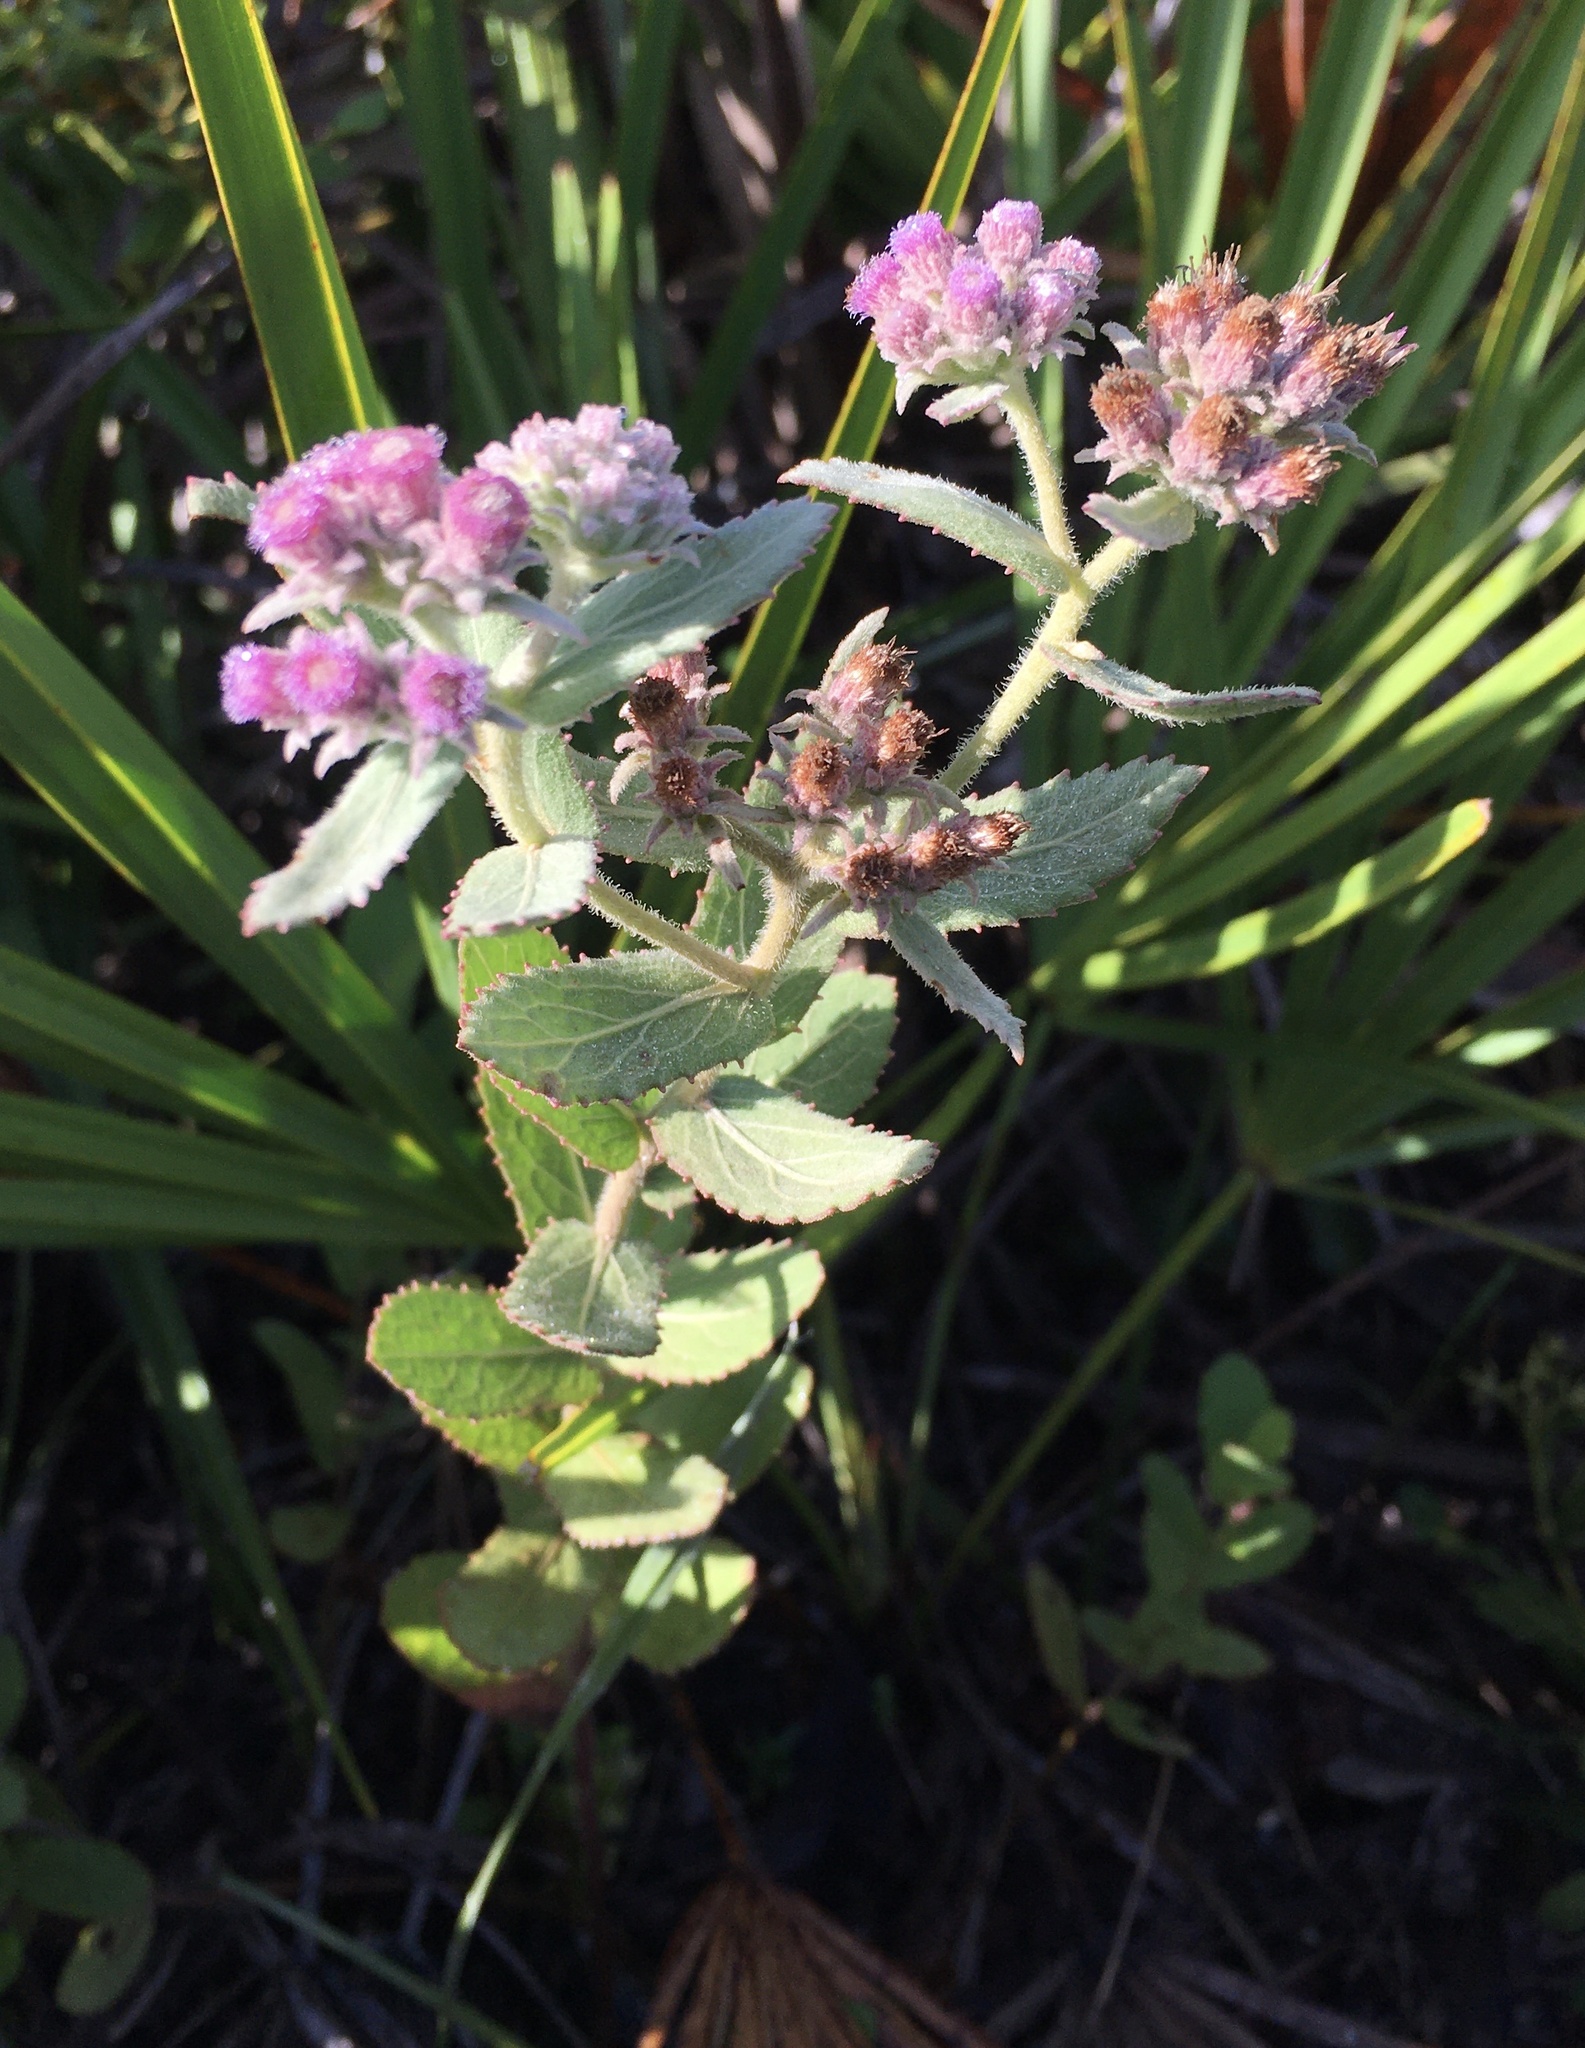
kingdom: Plantae
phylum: Tracheophyta
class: Magnoliopsida
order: Asterales
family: Asteraceae
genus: Pluchea
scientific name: Pluchea baccharis
